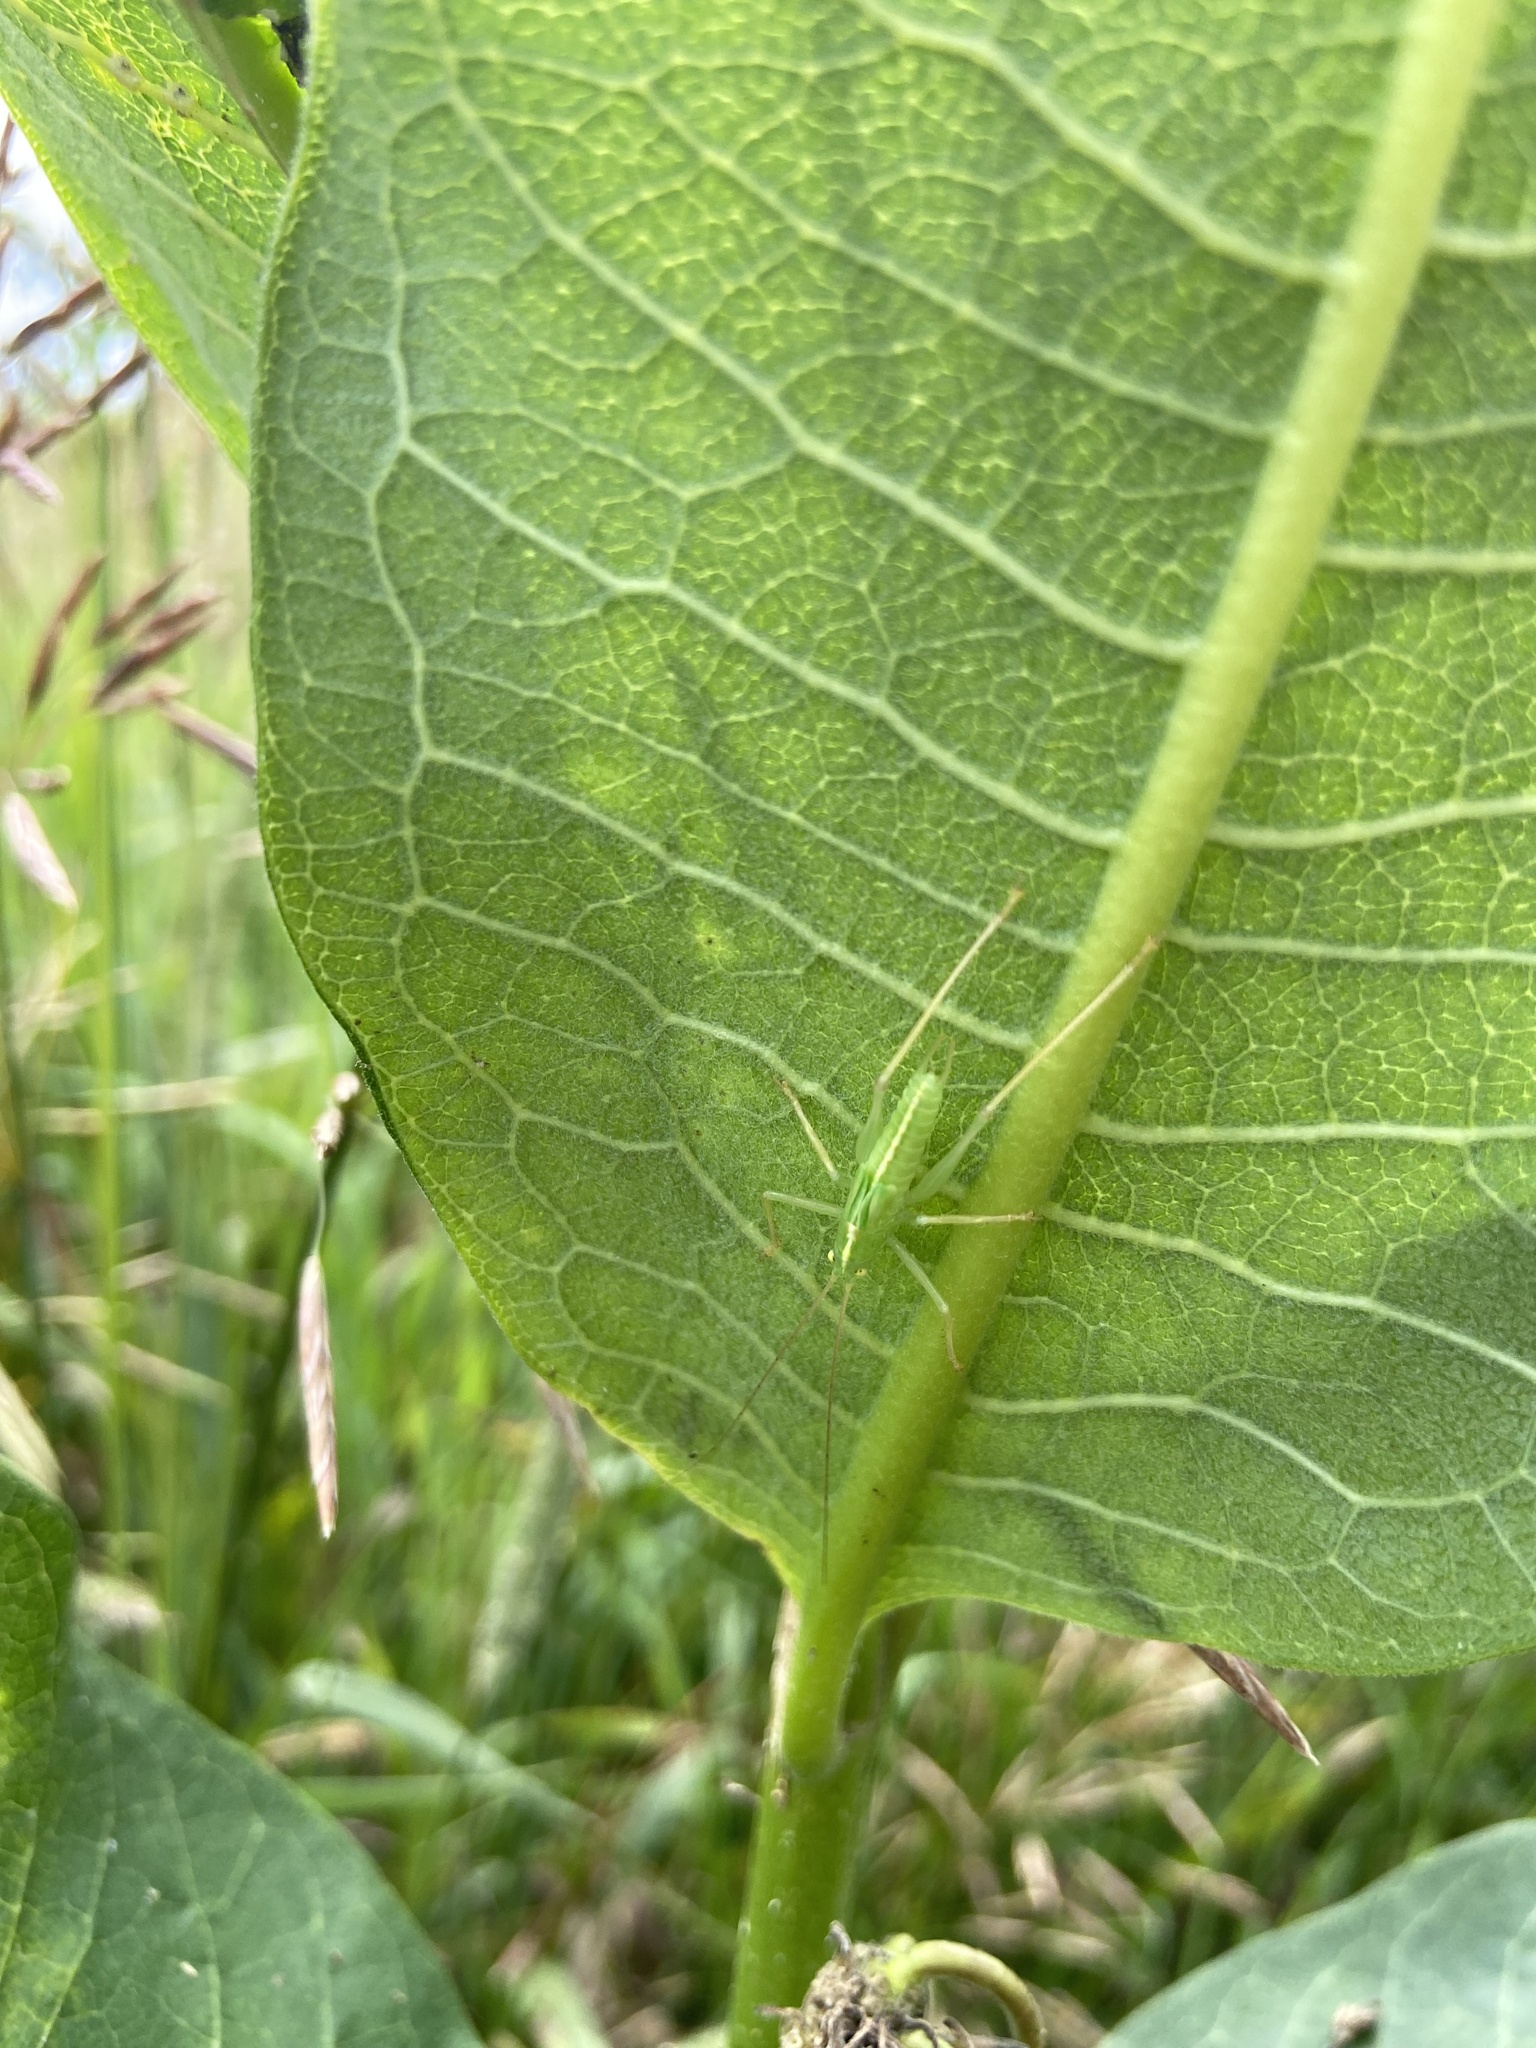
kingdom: Animalia
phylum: Arthropoda
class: Insecta
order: Orthoptera
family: Tettigoniidae
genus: Meconema
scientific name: Meconema thalassinum
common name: Oak bush-cricket
